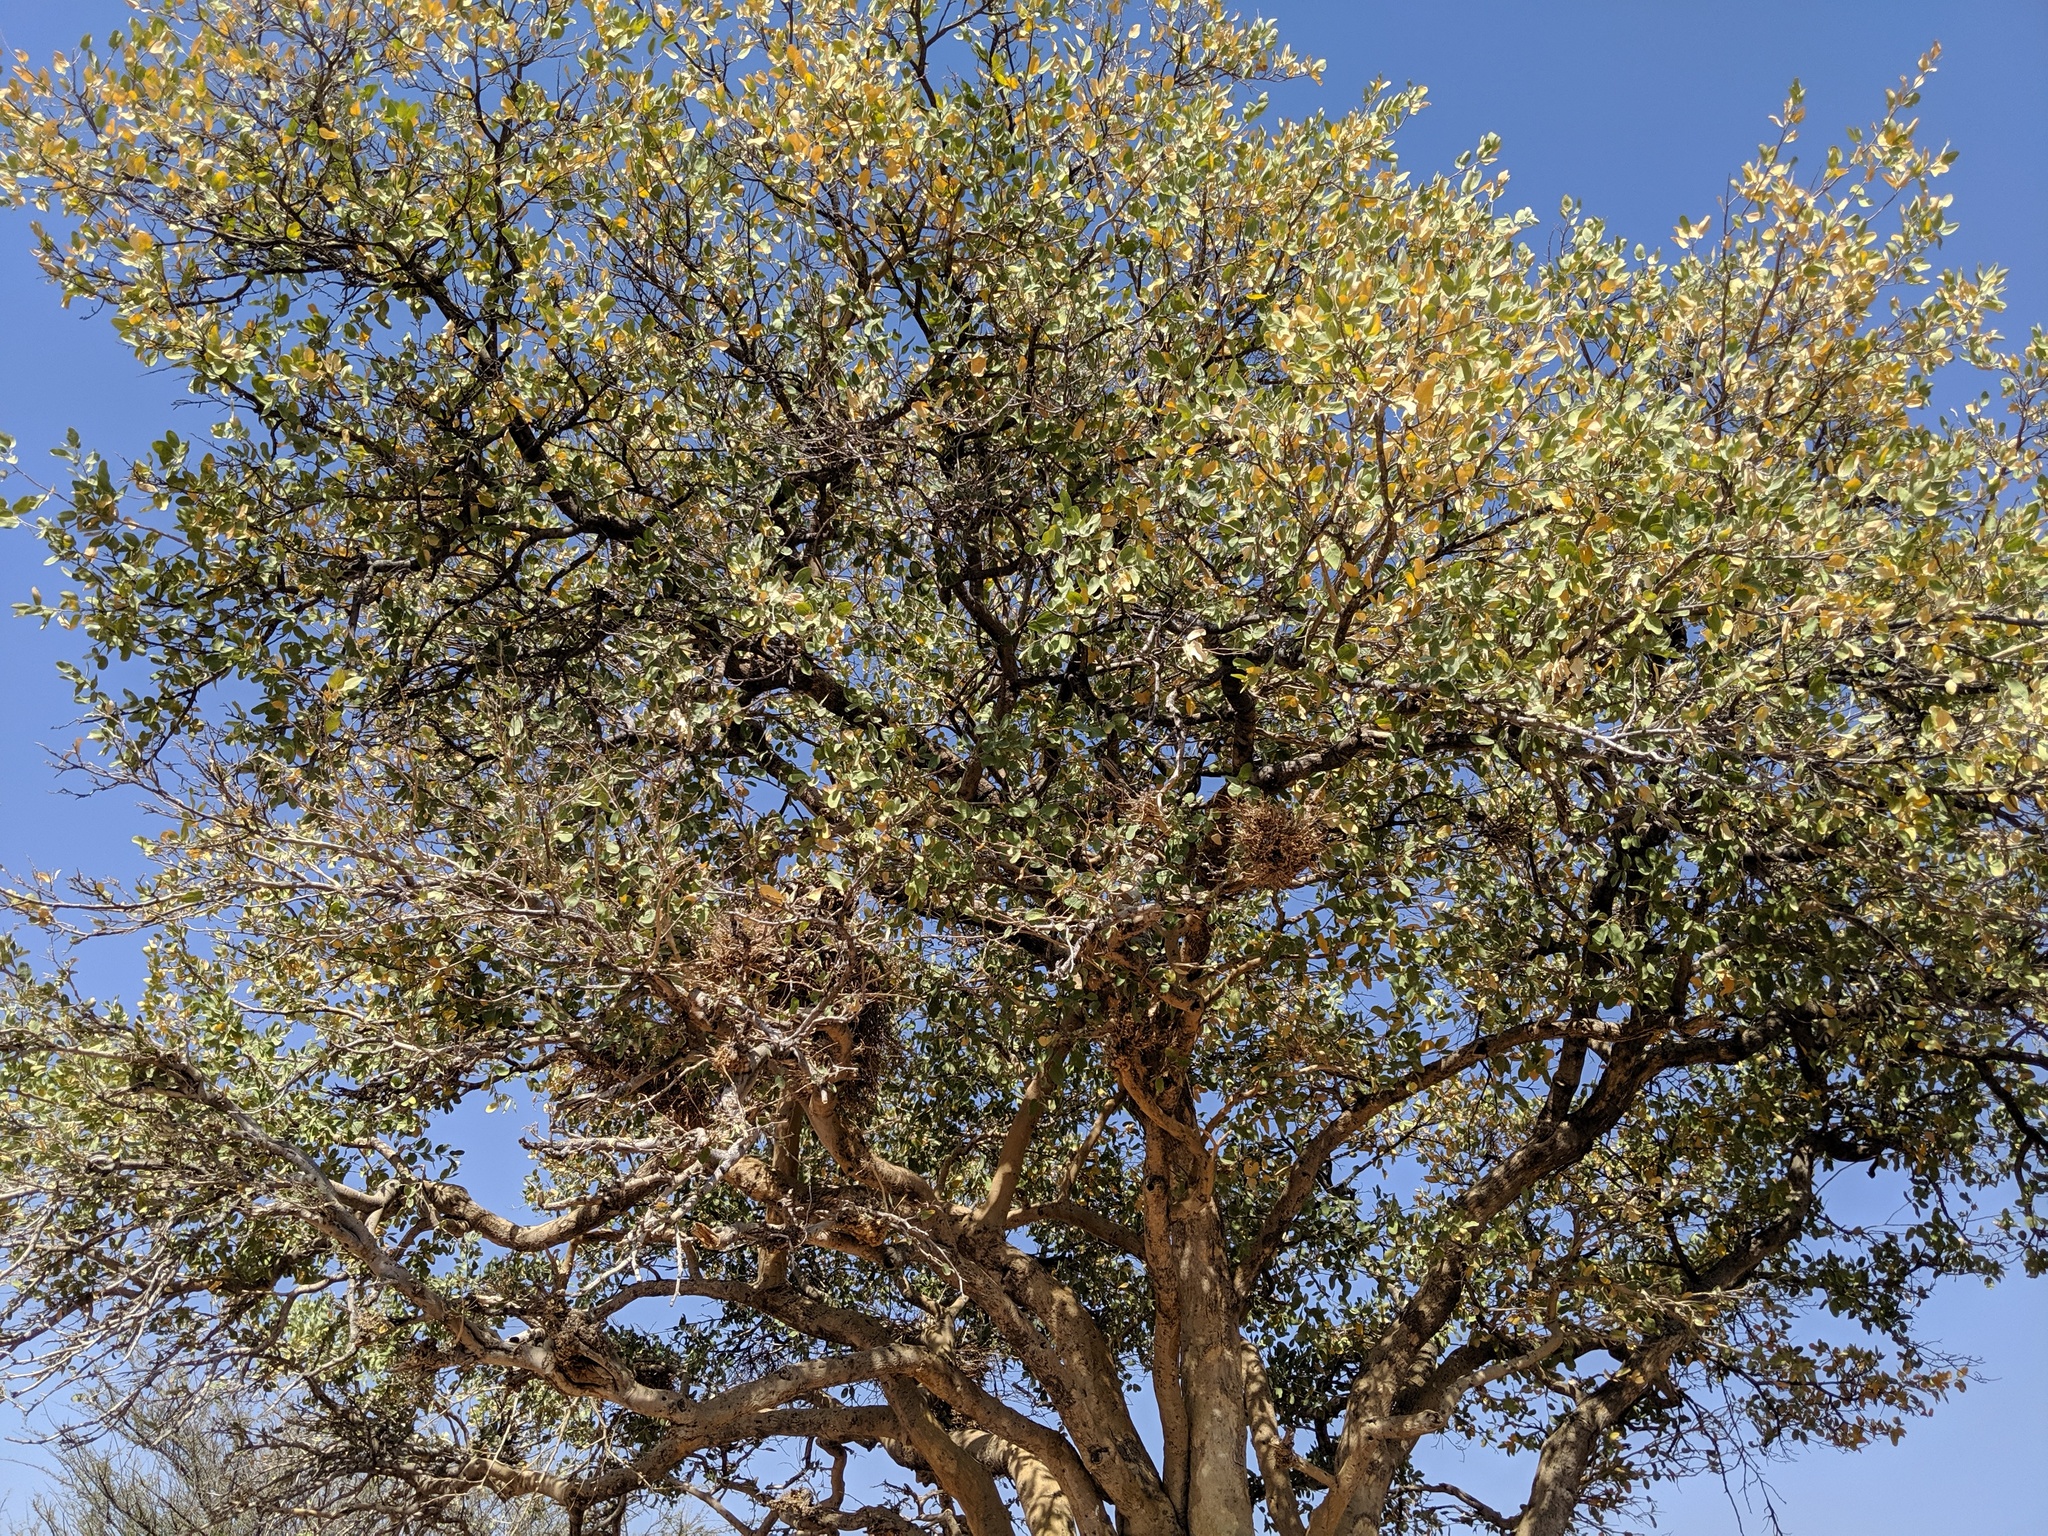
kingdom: Plantae
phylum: Tracheophyta
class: Magnoliopsida
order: Fabales
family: Fabaceae
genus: Philenoptera
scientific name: Philenoptera nelsii
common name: Kalahari apple-leaf
